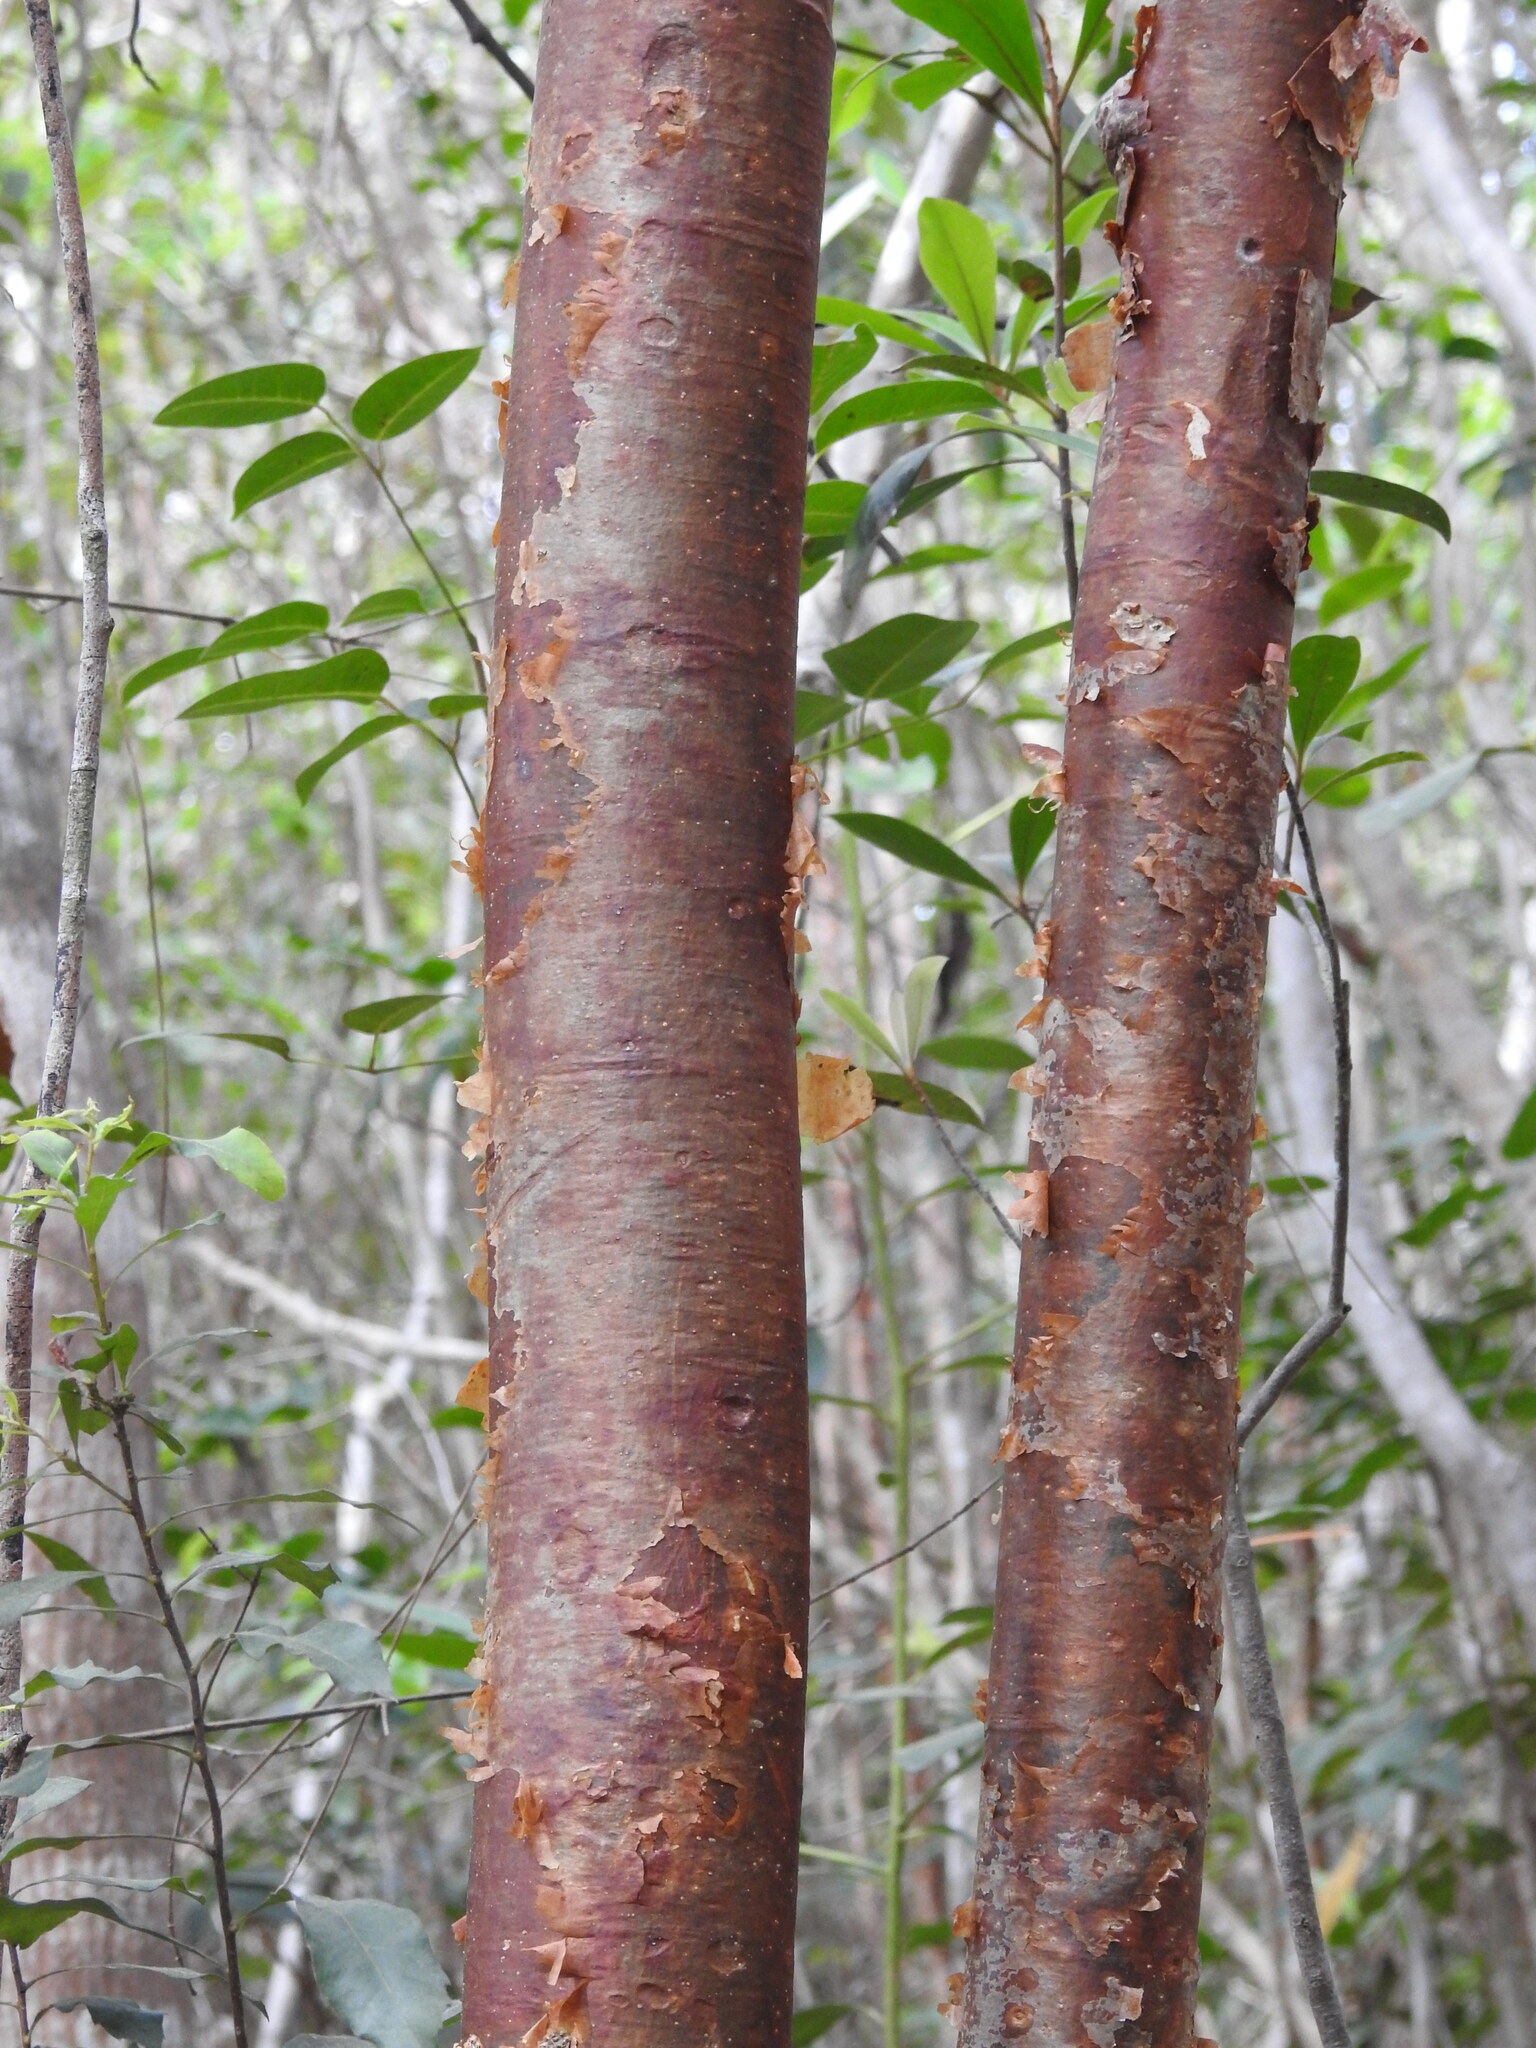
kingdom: Plantae
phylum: Tracheophyta
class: Magnoliopsida
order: Sapindales
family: Burseraceae
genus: Bursera
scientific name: Bursera simaruba
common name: Turpentine tree
